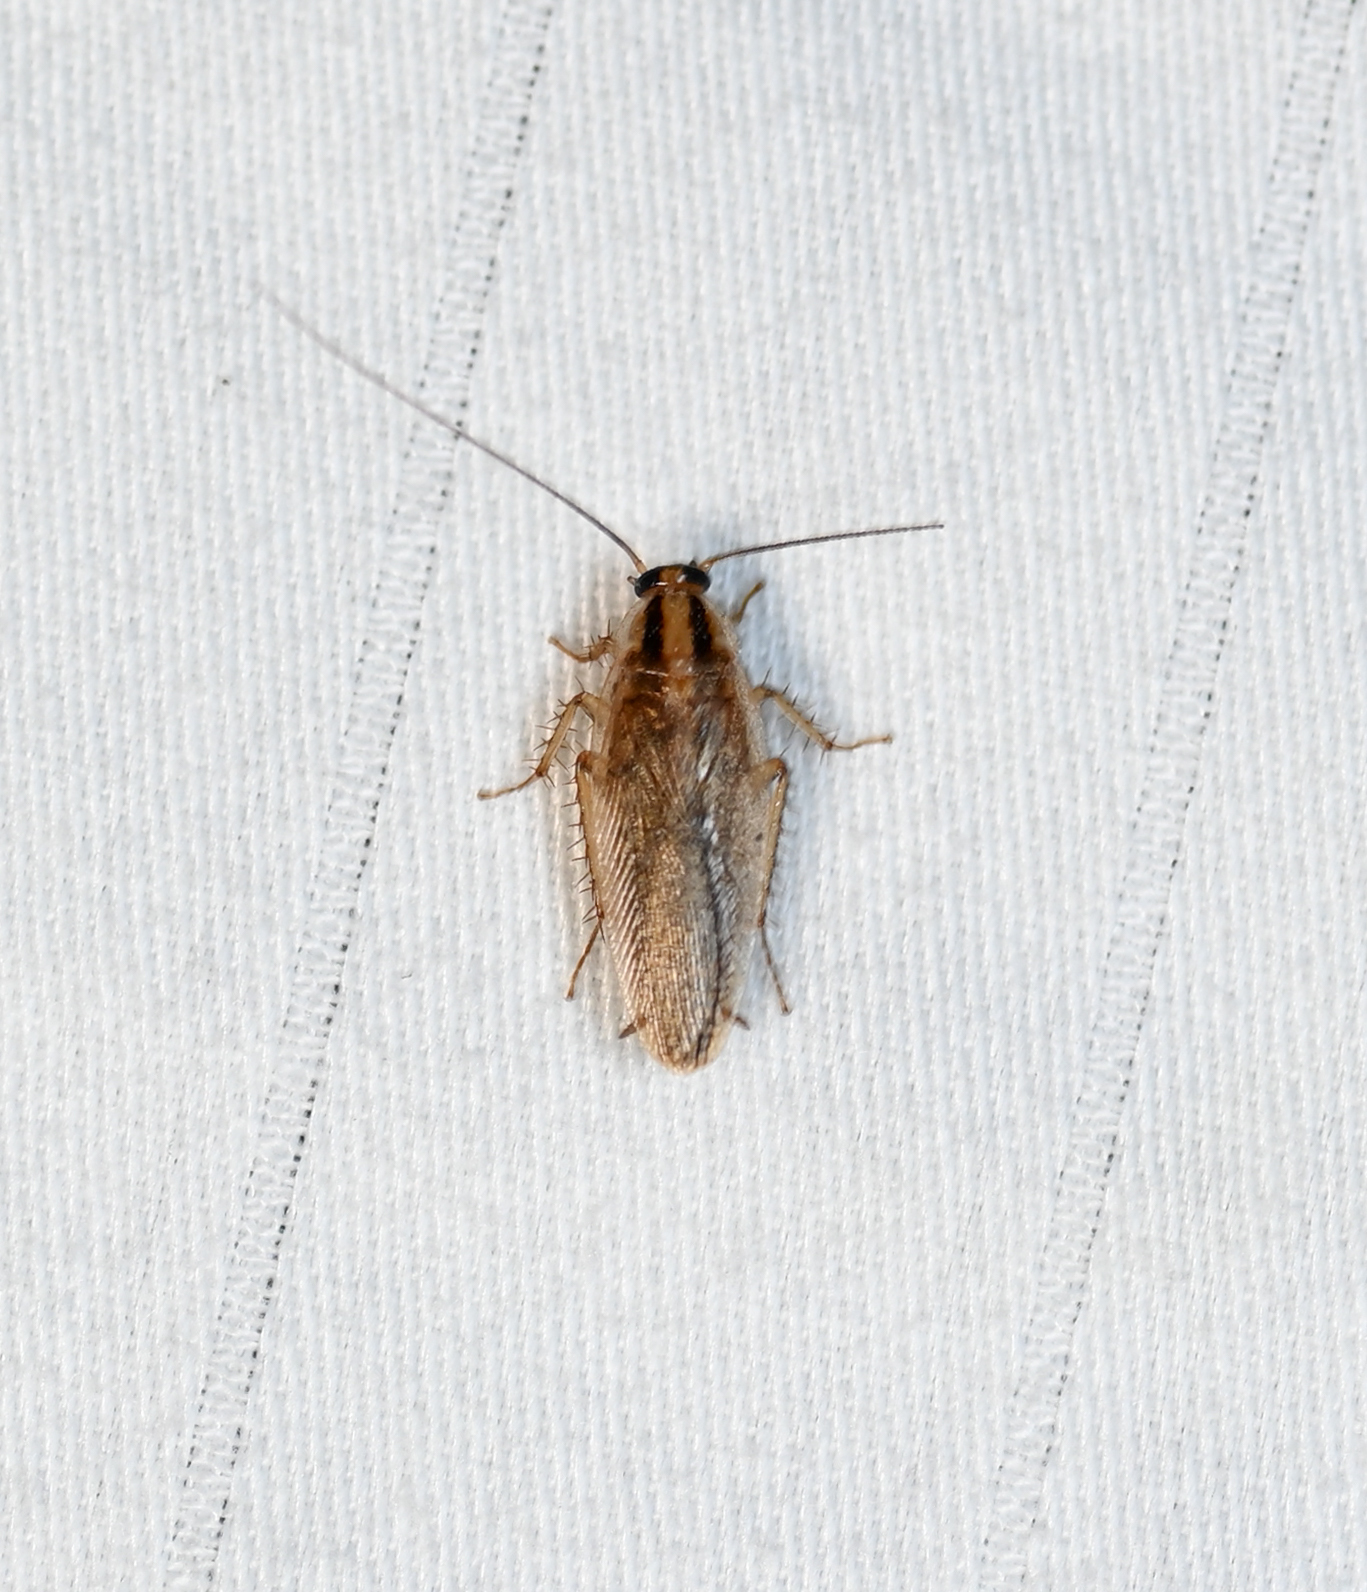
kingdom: Animalia
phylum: Arthropoda
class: Insecta
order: Blattodea
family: Ectobiidae
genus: Blattella
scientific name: Blattella asahinai
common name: Asian cockroach
